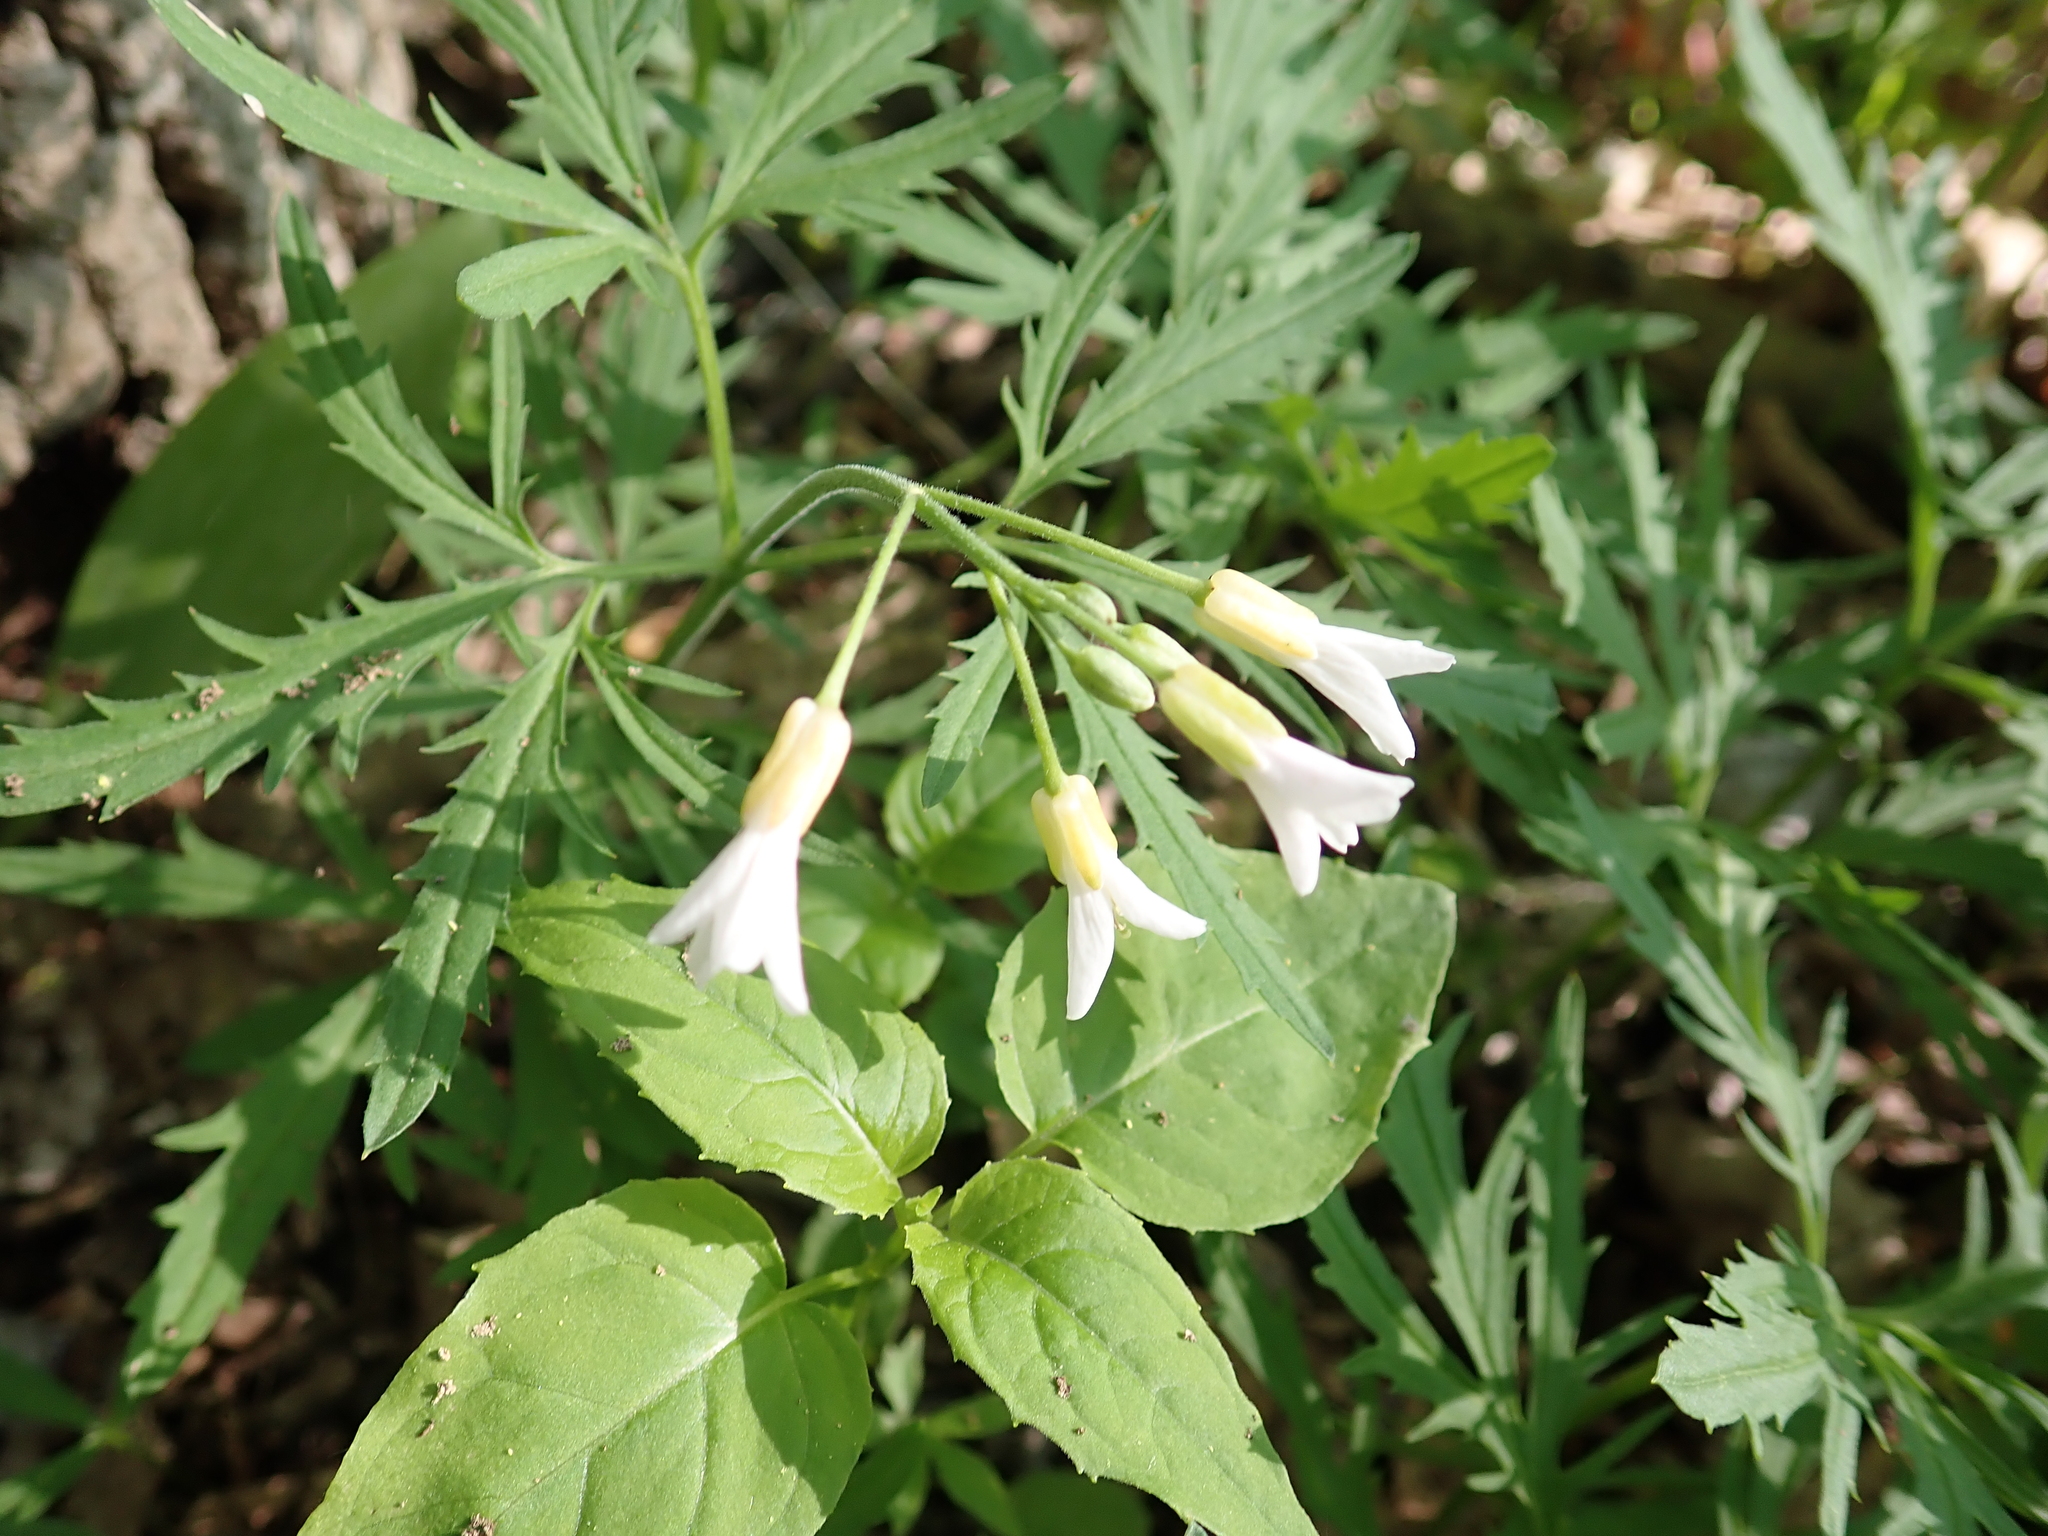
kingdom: Plantae
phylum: Tracheophyta
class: Magnoliopsida
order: Brassicales
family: Brassicaceae
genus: Cardamine
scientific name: Cardamine concatenata
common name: Cut-leaf toothcup
